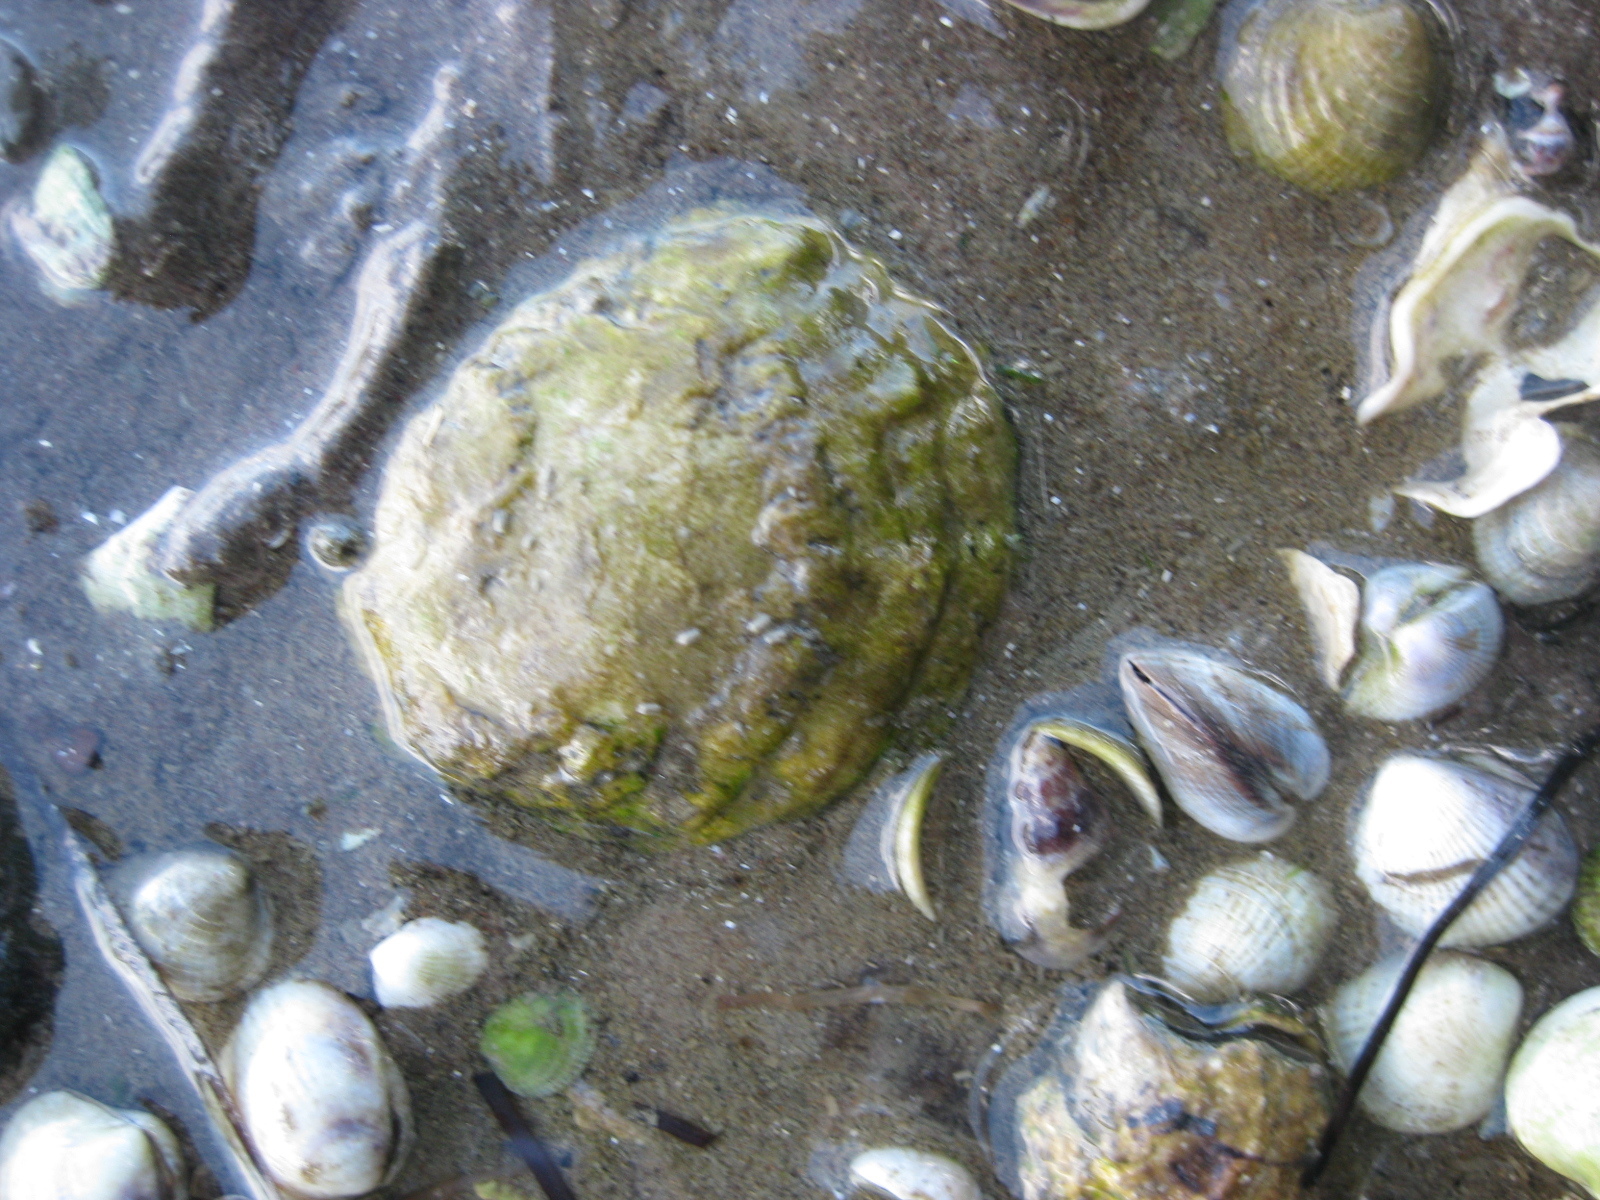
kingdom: Animalia
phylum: Mollusca
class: Bivalvia
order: Ostreida
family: Ostreidae
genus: Ostrea
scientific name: Ostrea chilensis
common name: Chilean oyster
